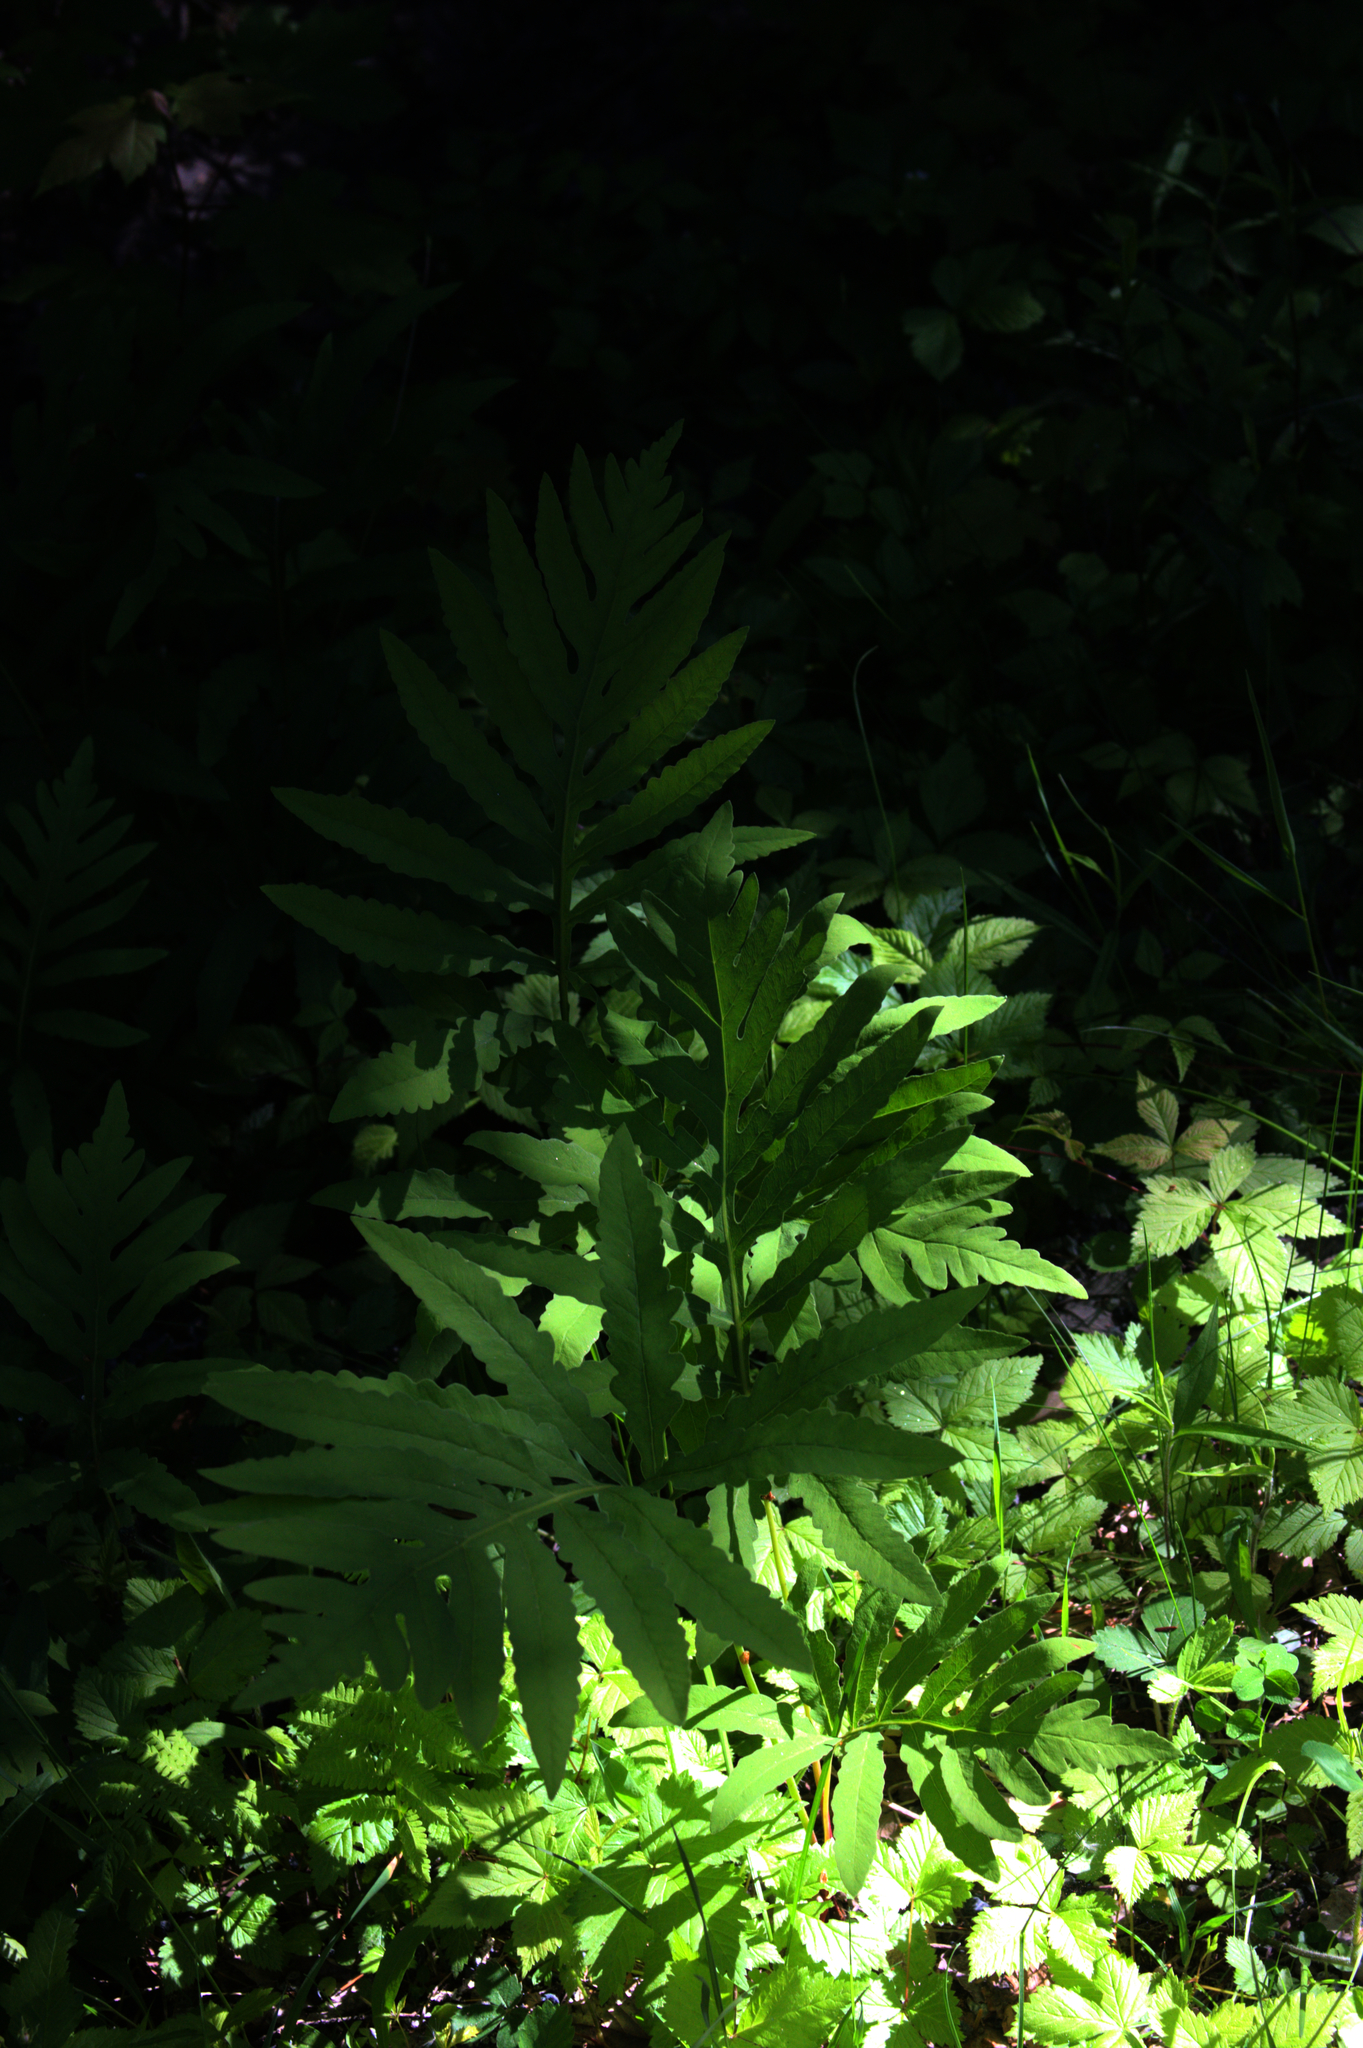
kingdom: Plantae
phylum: Tracheophyta
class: Polypodiopsida
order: Polypodiales
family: Onocleaceae
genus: Onoclea
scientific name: Onoclea sensibilis
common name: Sensitive fern
